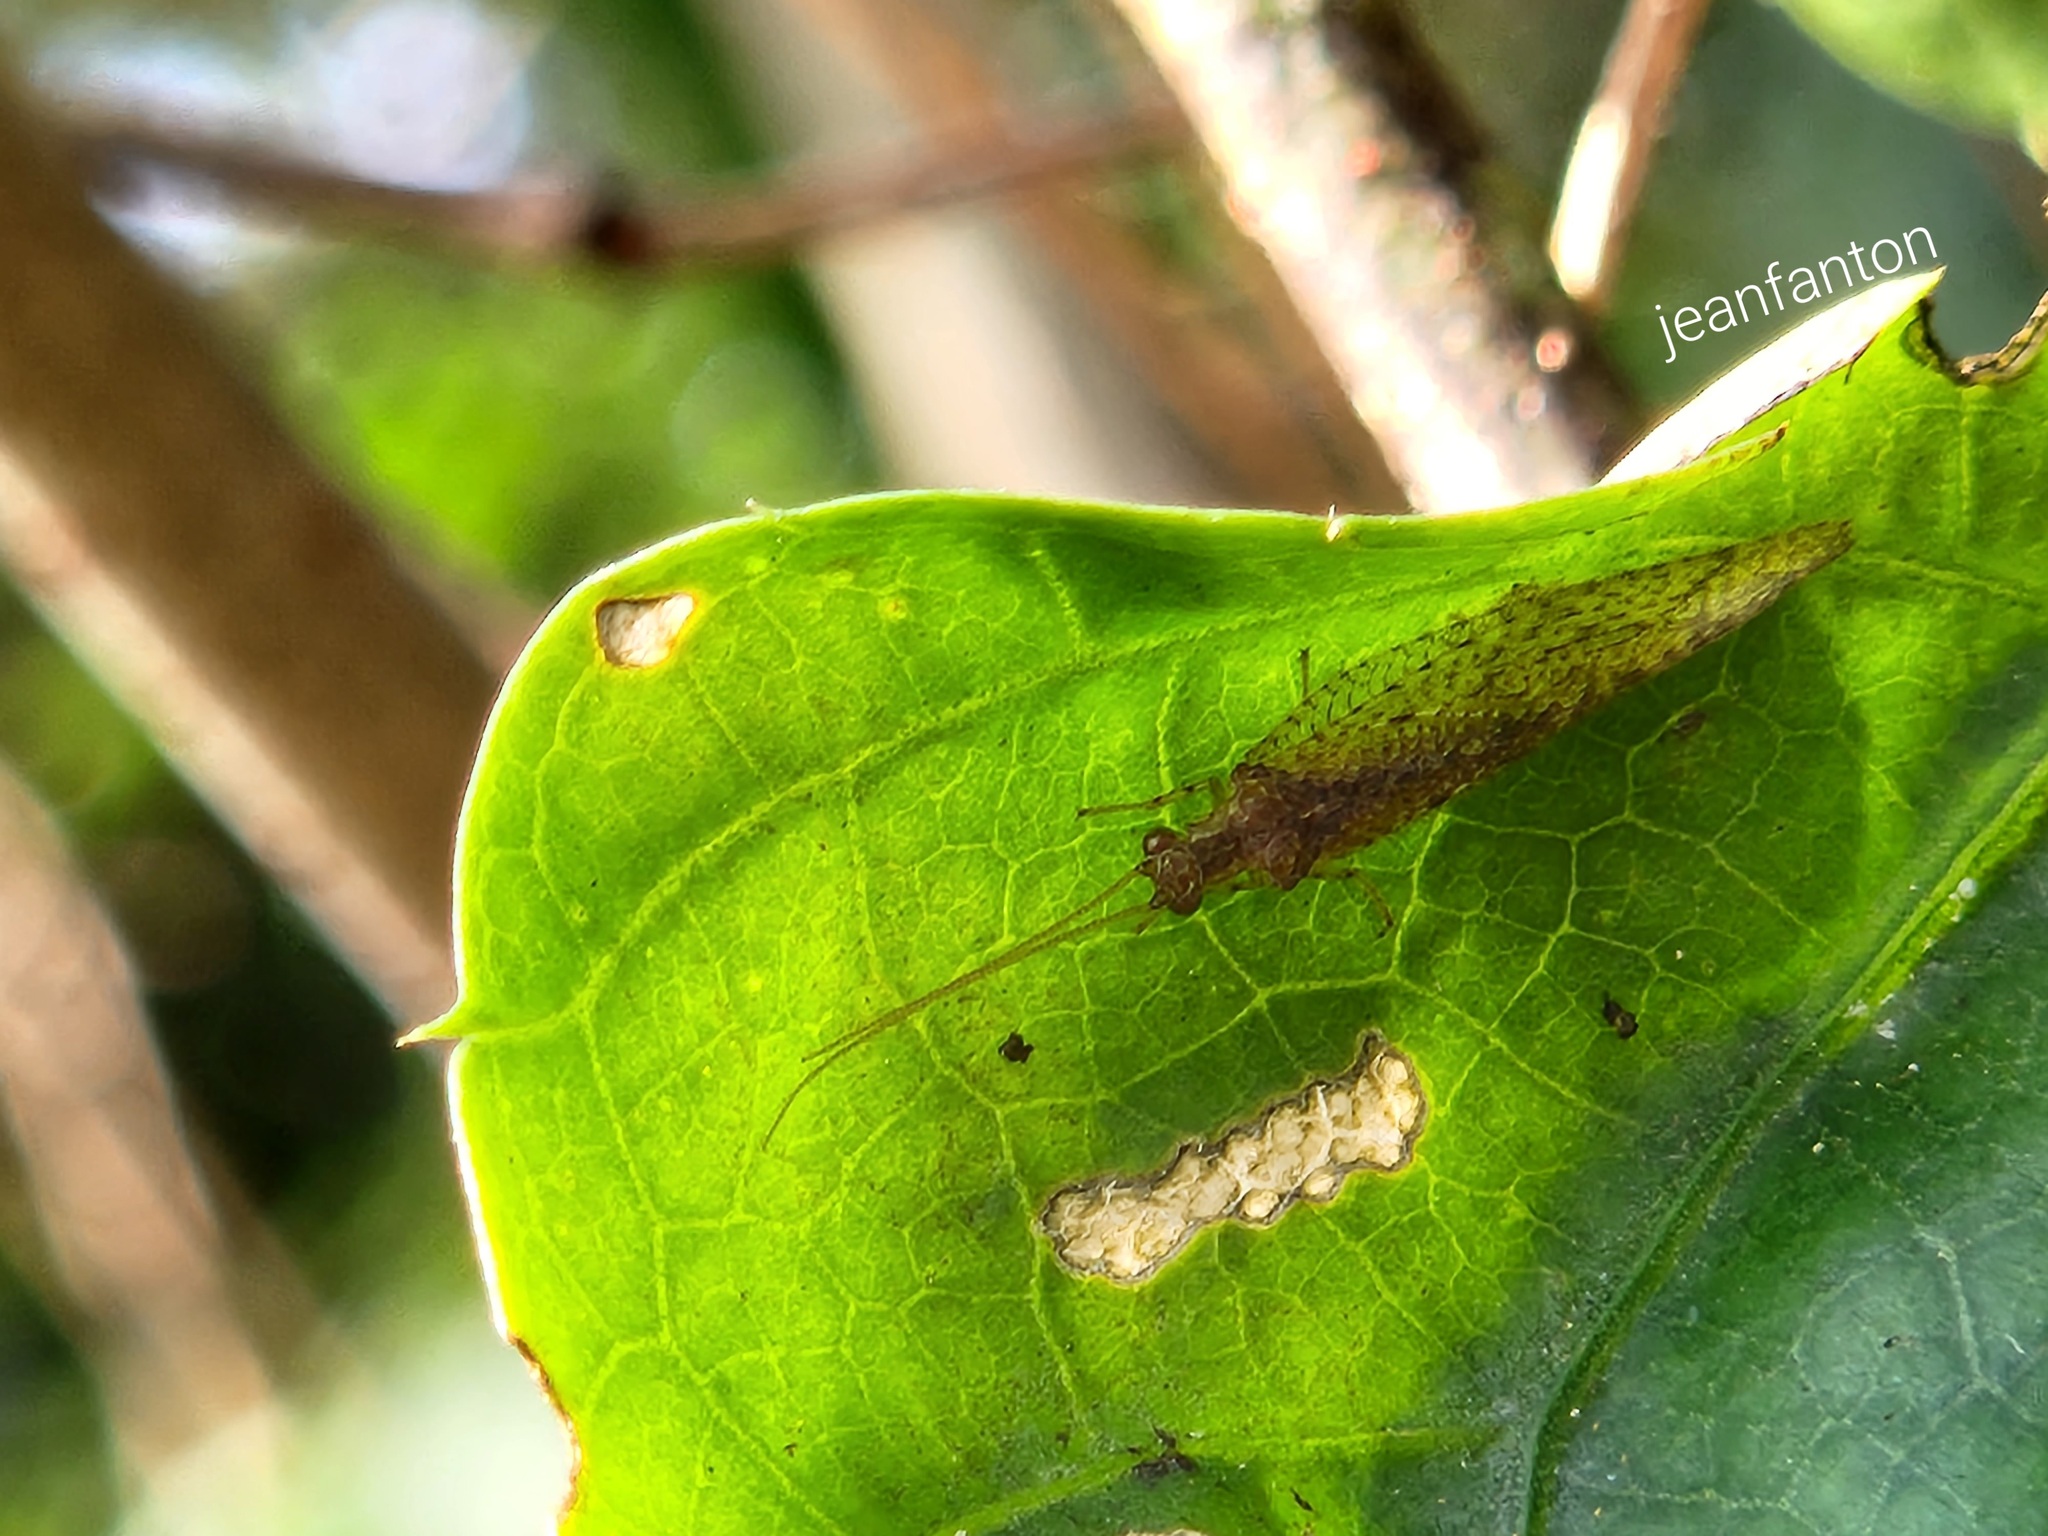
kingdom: Animalia
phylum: Arthropoda
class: Insecta
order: Neuroptera
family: Hemerobiidae
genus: Nusalala
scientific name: Nusalala tessellata
